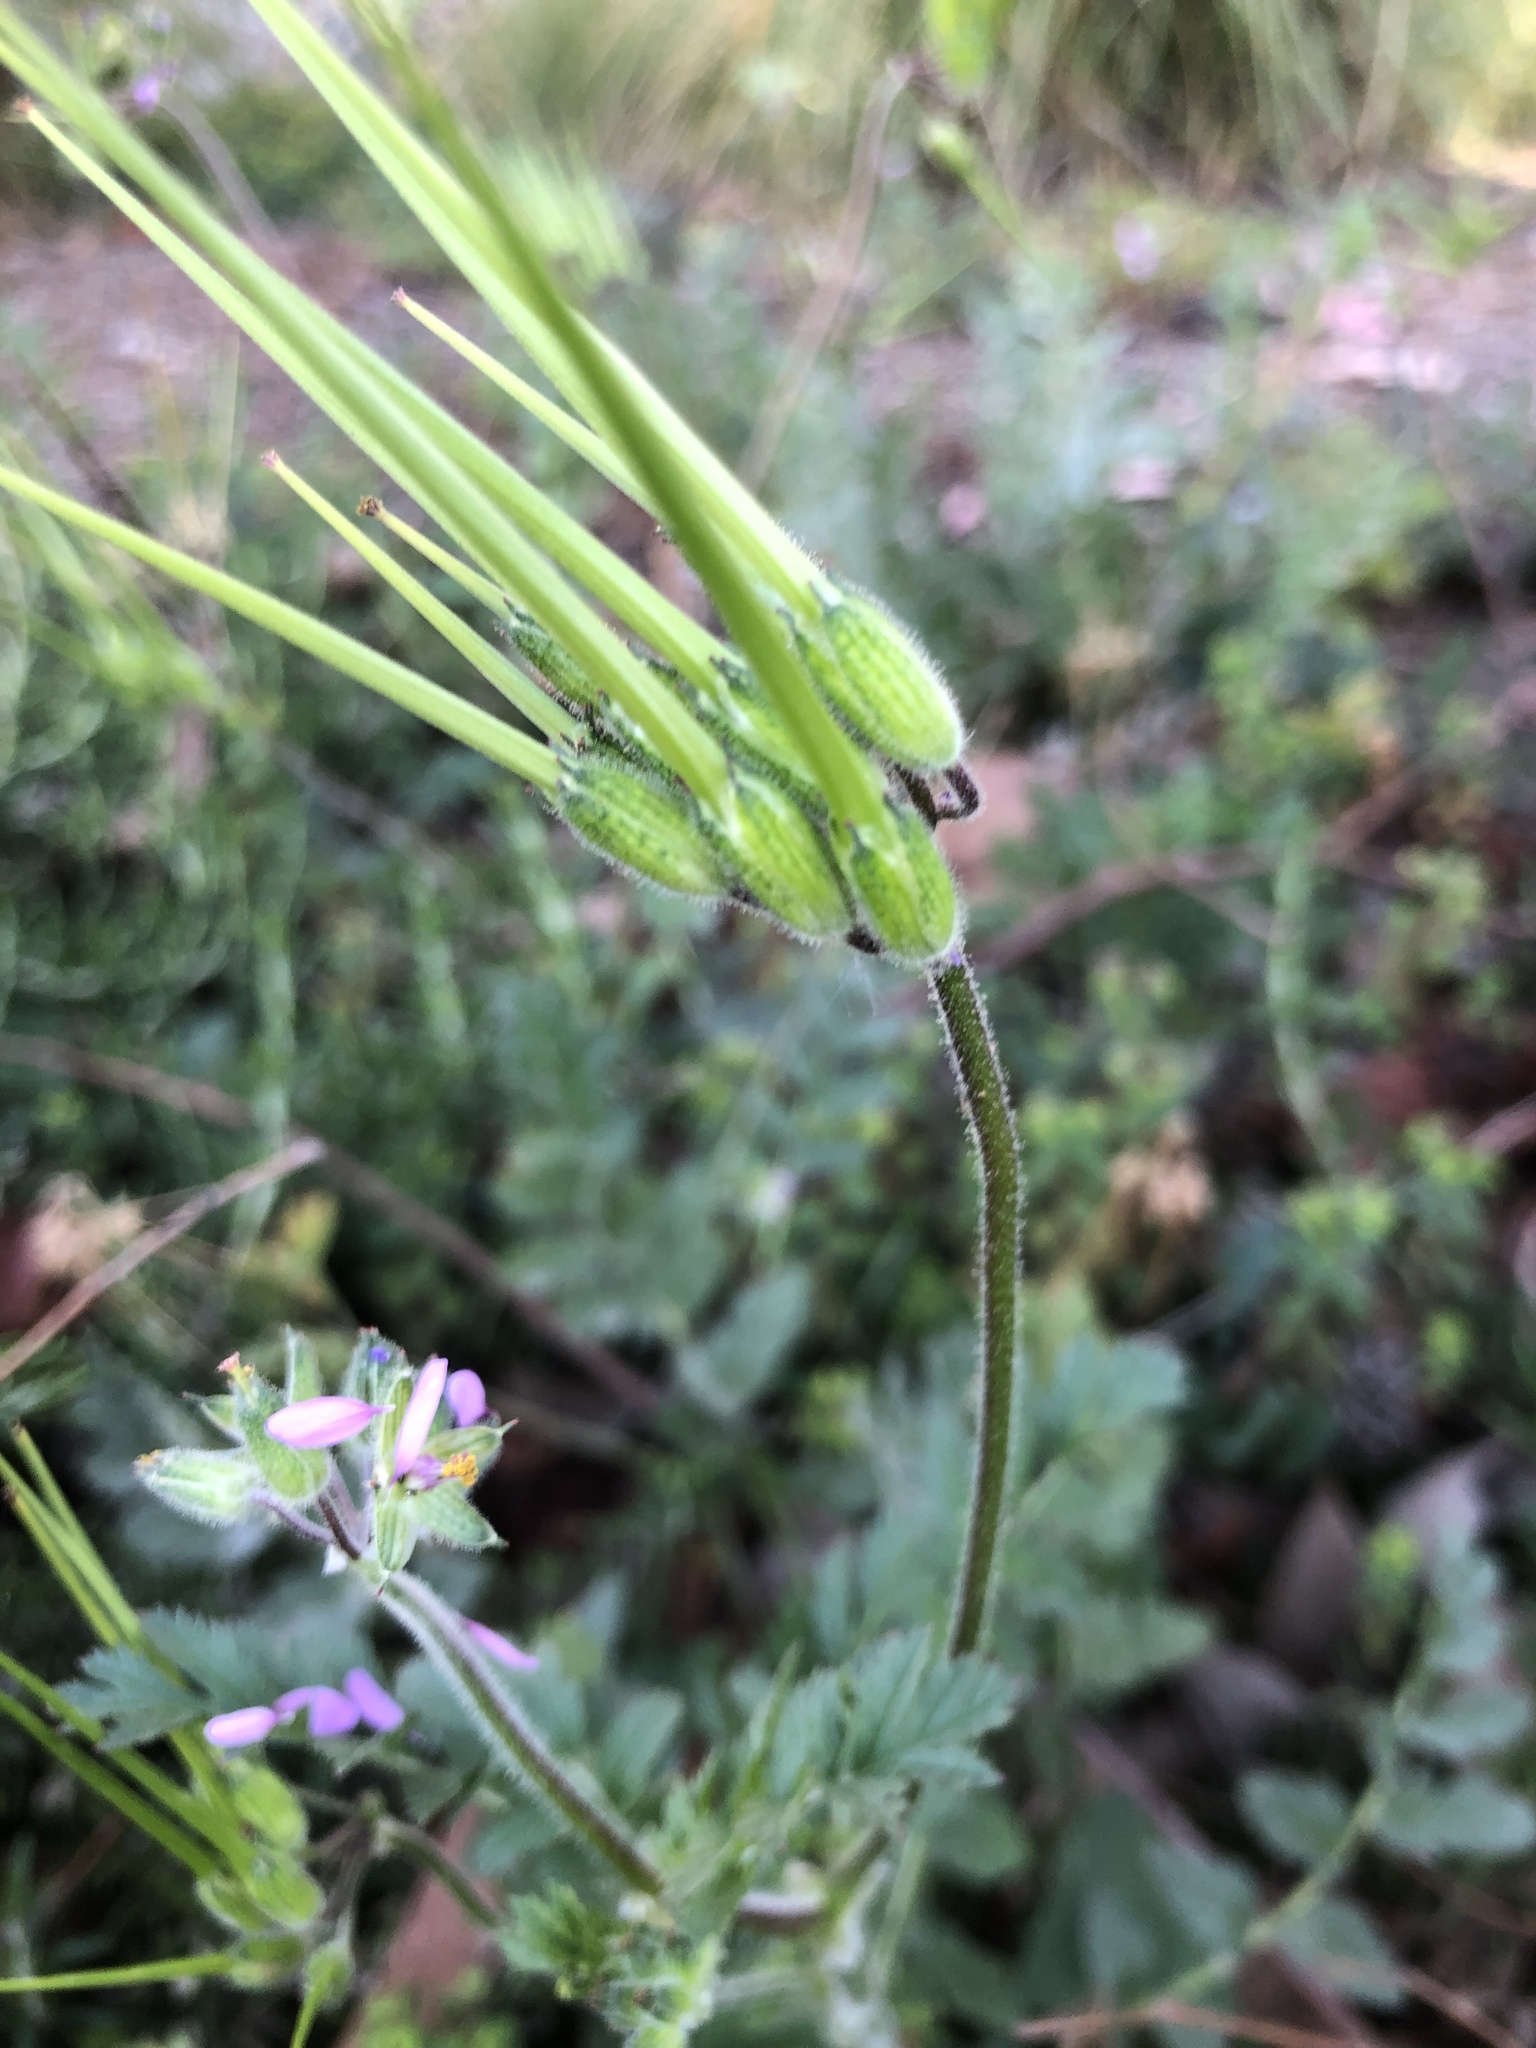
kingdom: Plantae
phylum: Tracheophyta
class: Magnoliopsida
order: Geraniales
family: Geraniaceae
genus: Erodium
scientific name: Erodium moschatum
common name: Musk stork's-bill
